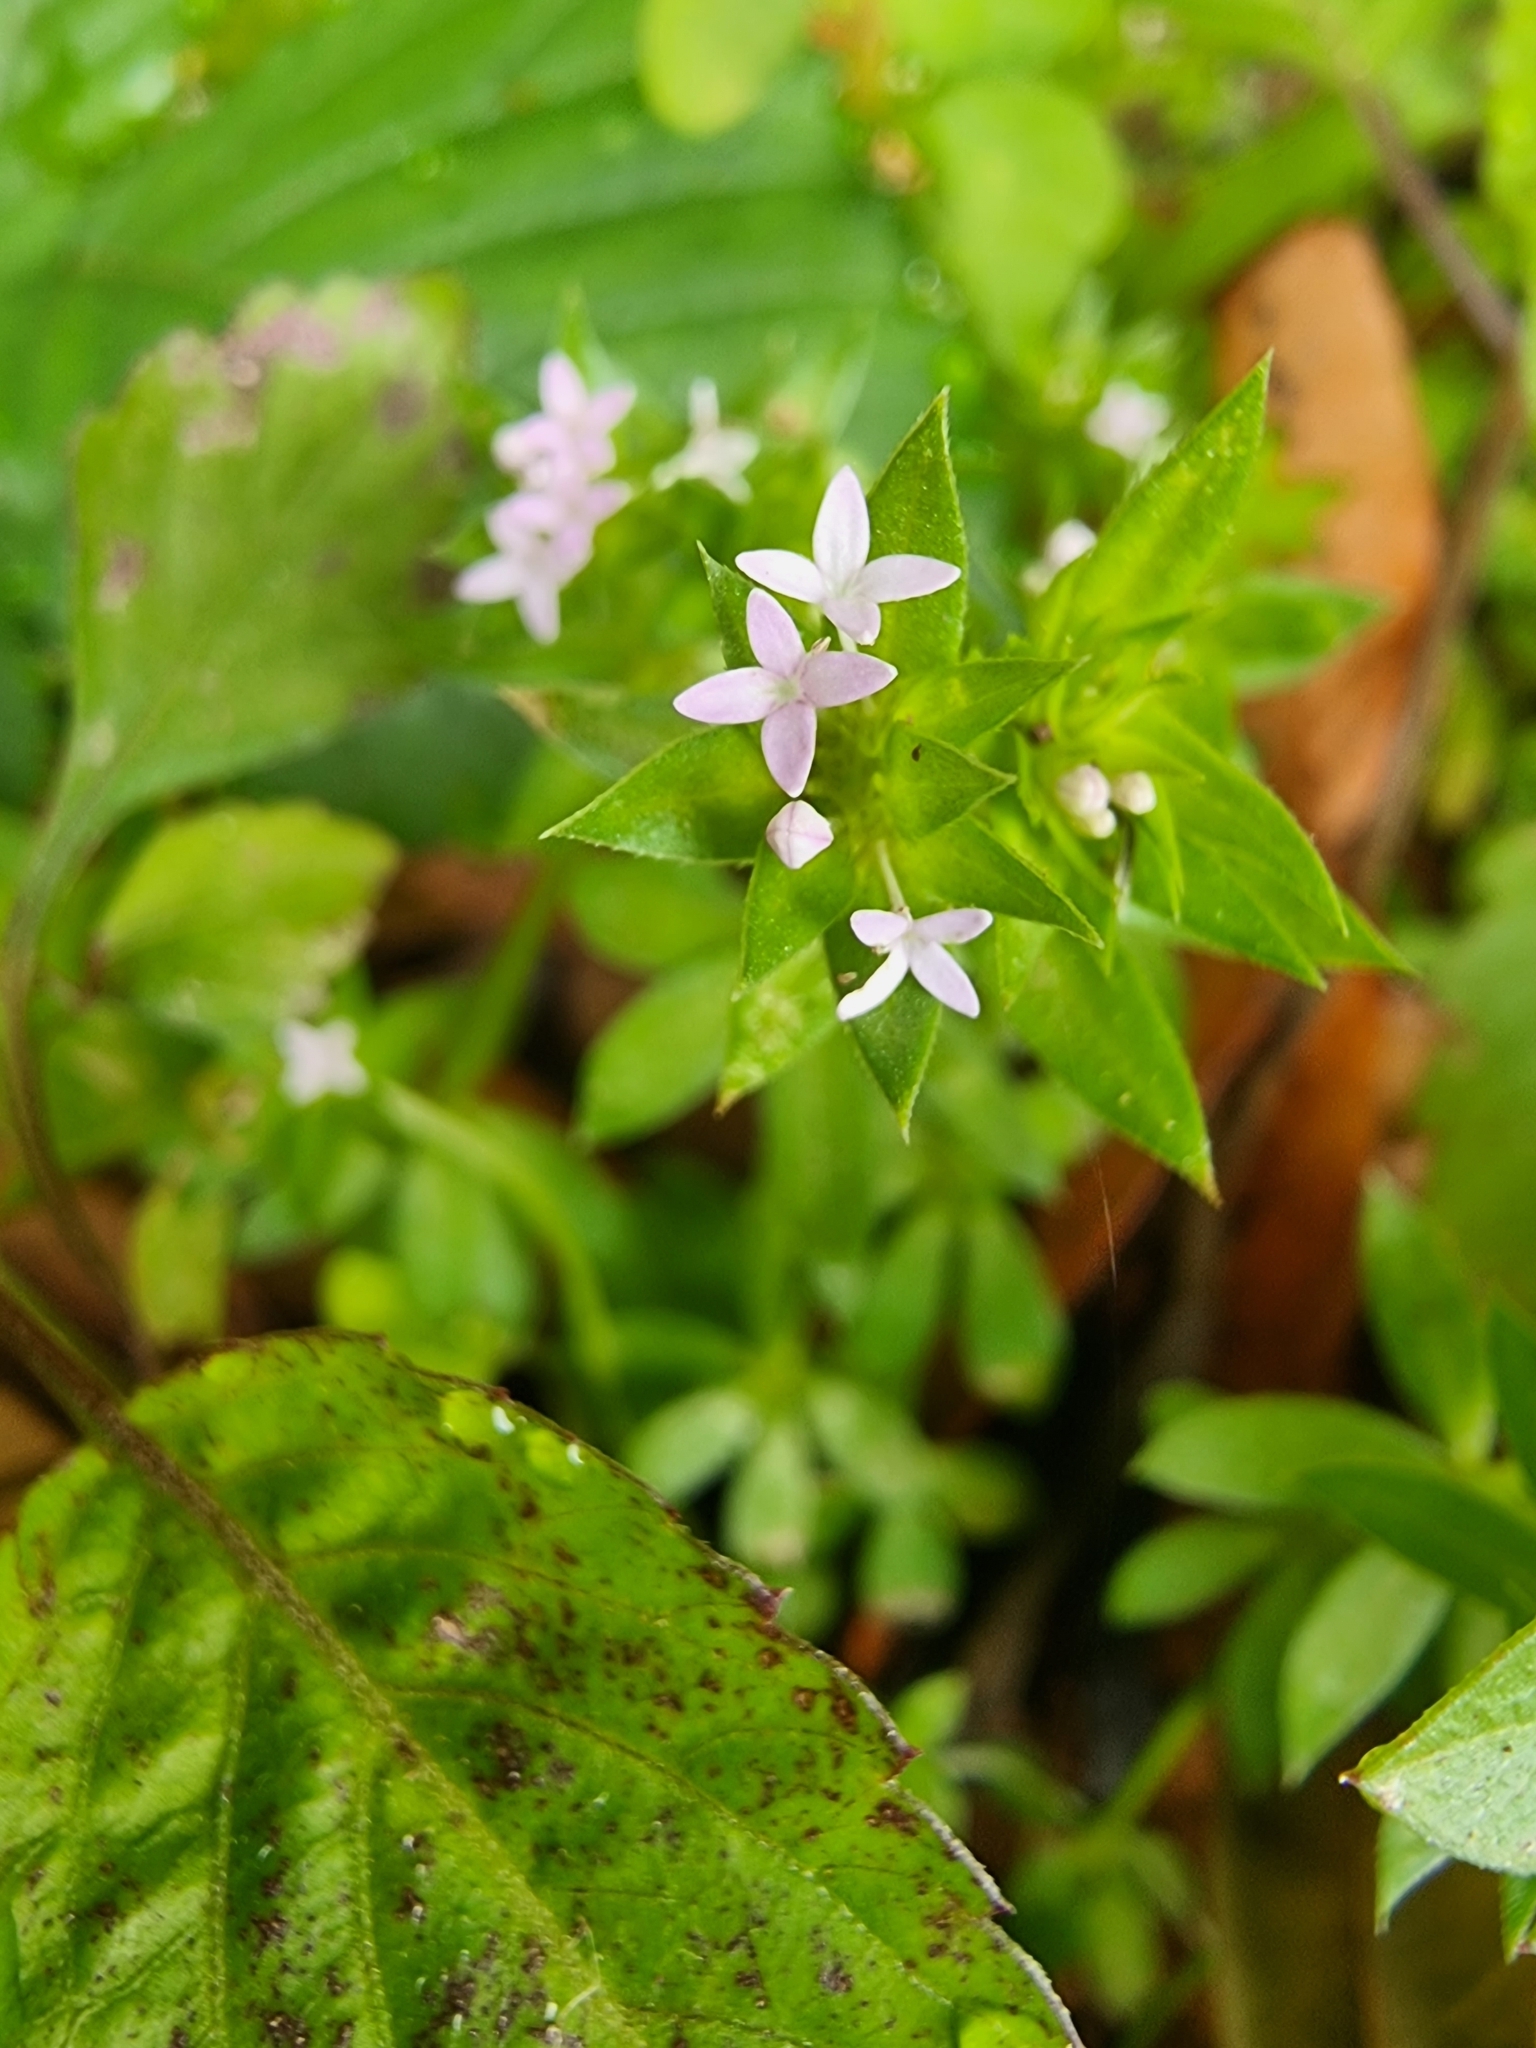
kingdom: Plantae
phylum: Tracheophyta
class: Magnoliopsida
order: Gentianales
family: Rubiaceae
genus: Sherardia
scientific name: Sherardia arvensis
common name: Field madder
